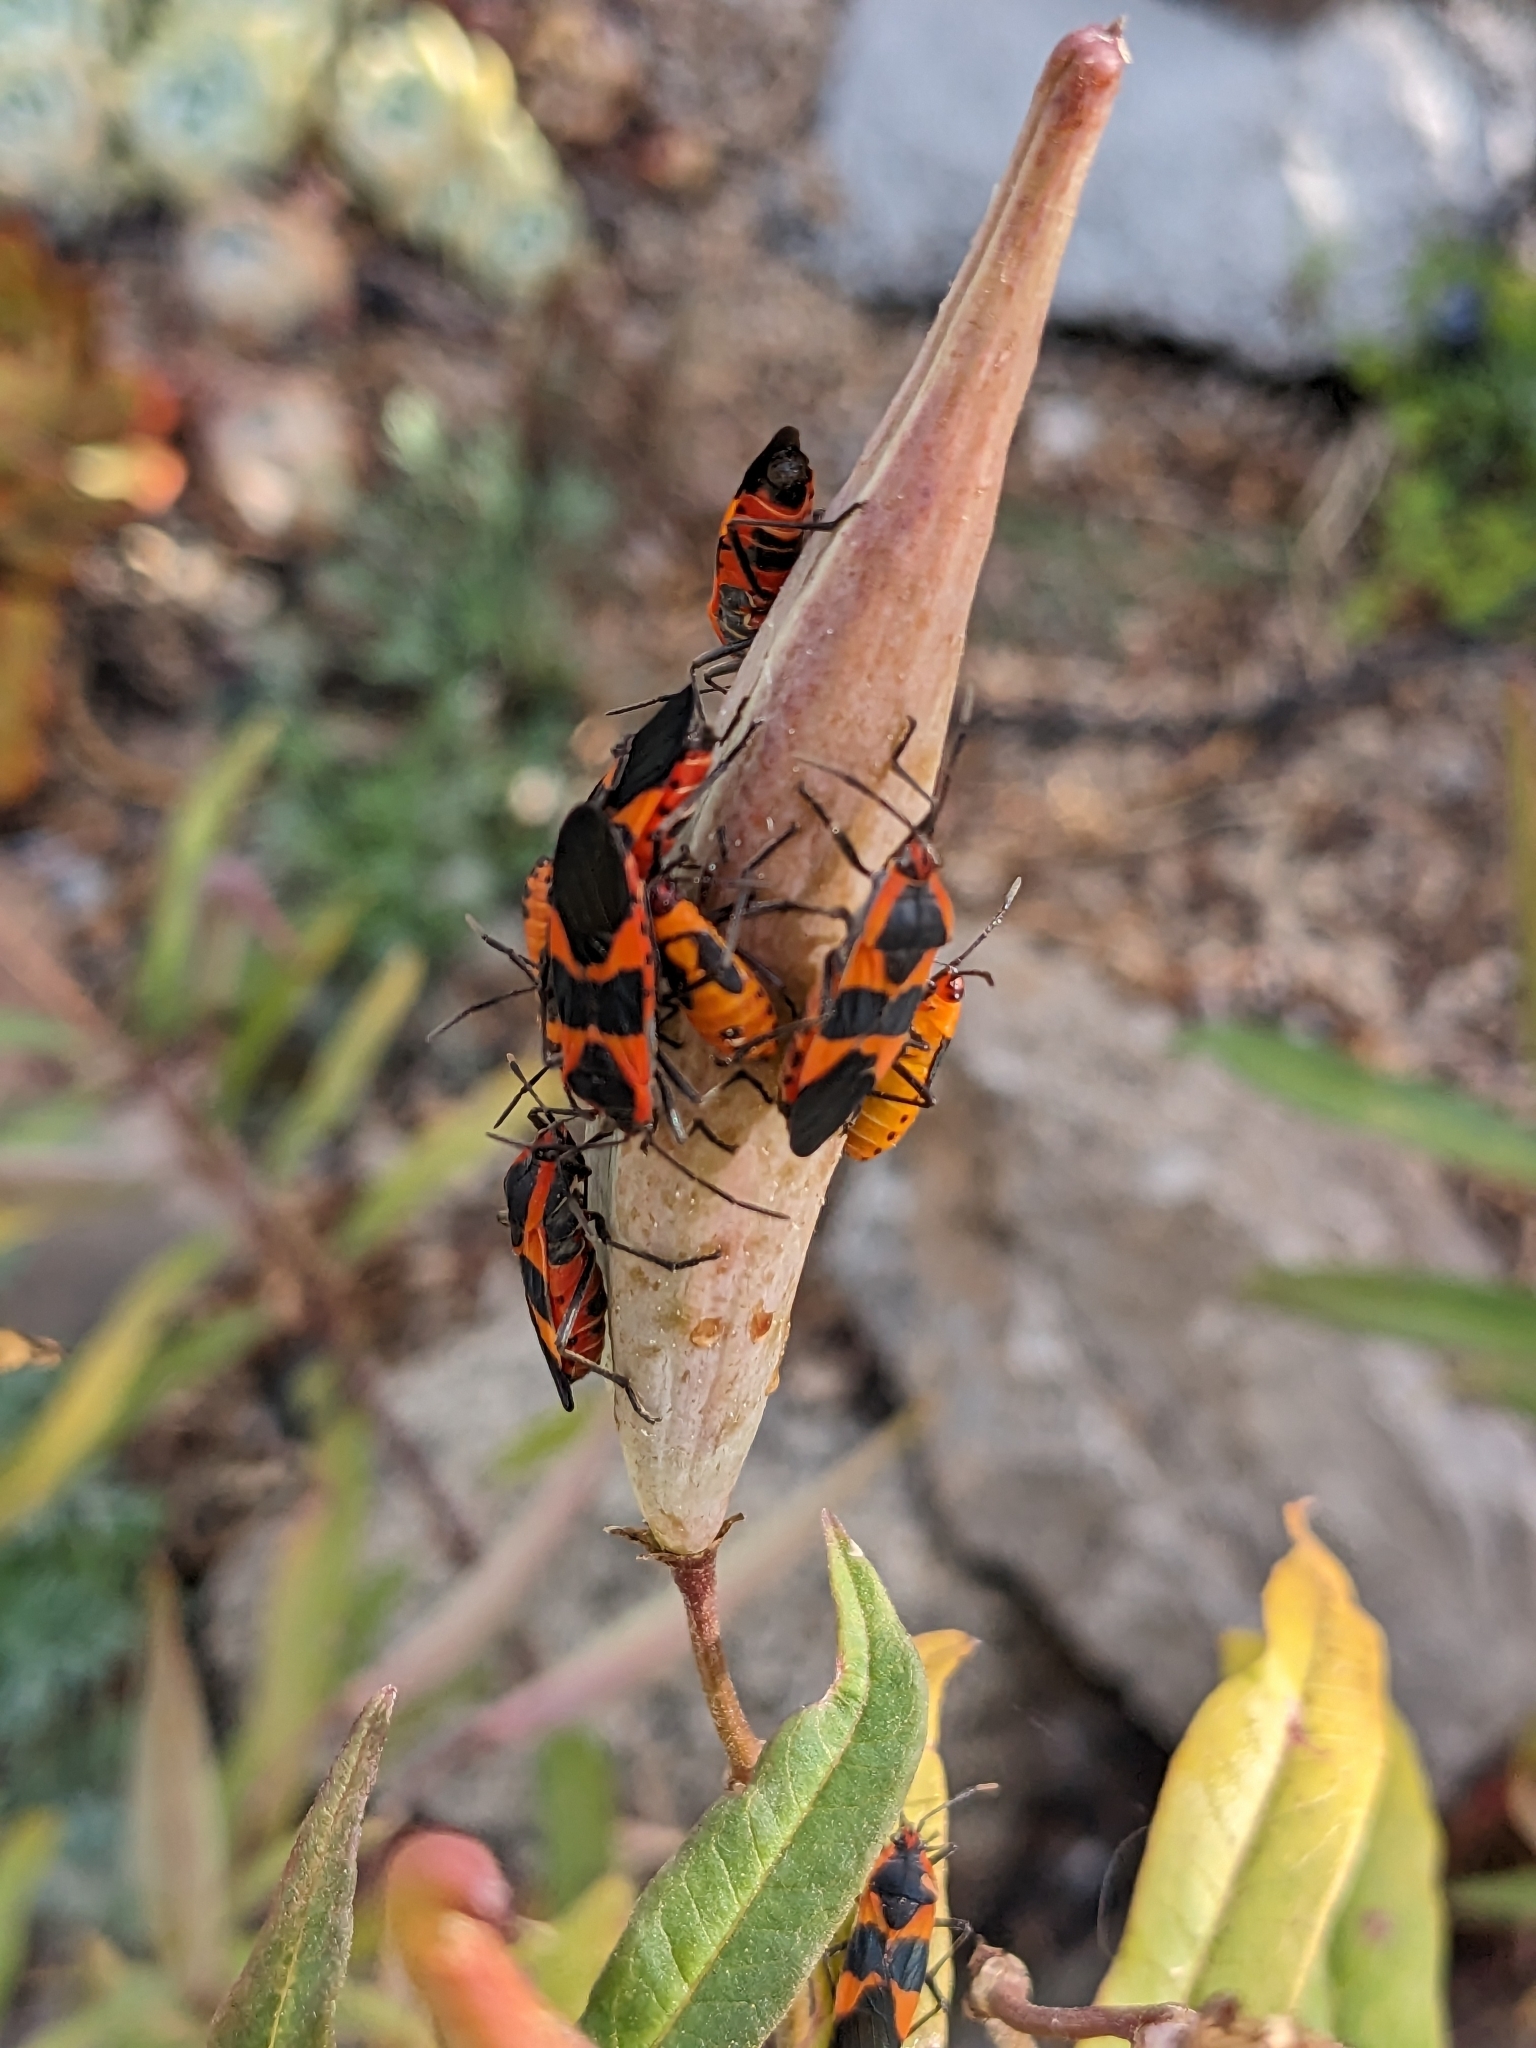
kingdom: Animalia
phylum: Arthropoda
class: Insecta
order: Hemiptera
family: Lygaeidae
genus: Oncopeltus
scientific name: Oncopeltus fasciatus
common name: Large milkweed bug
